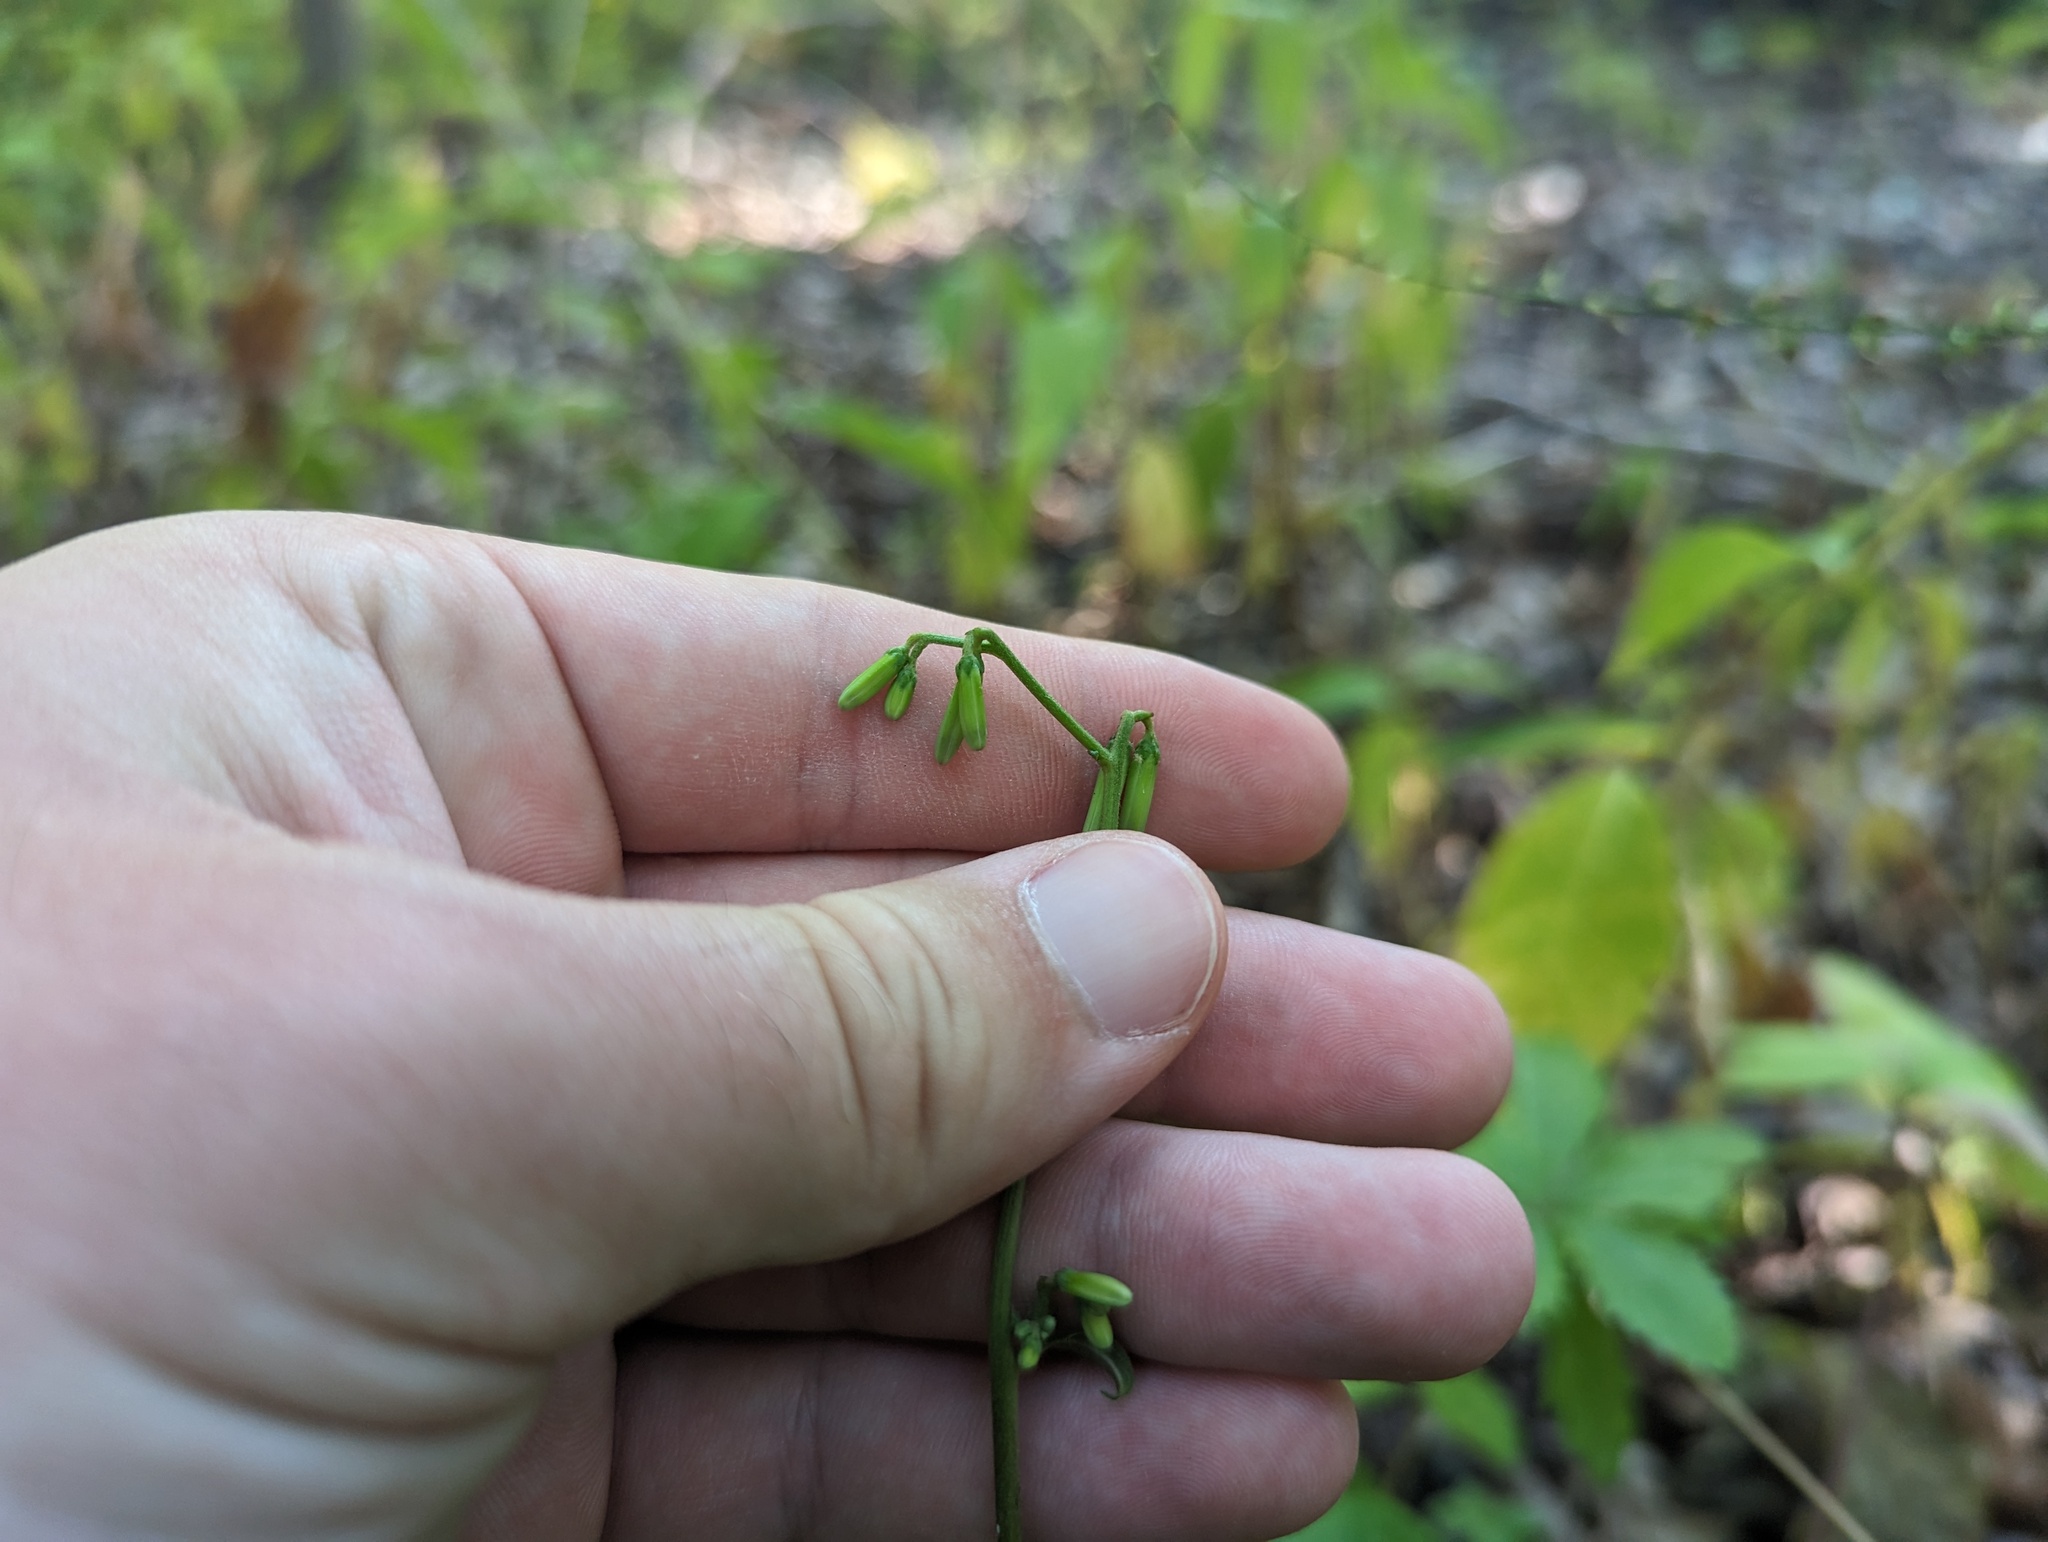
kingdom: Plantae
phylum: Tracheophyta
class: Magnoliopsida
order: Asterales
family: Asteraceae
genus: Nabalus
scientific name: Nabalus altissima
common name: Tall rattlesnakeroot
